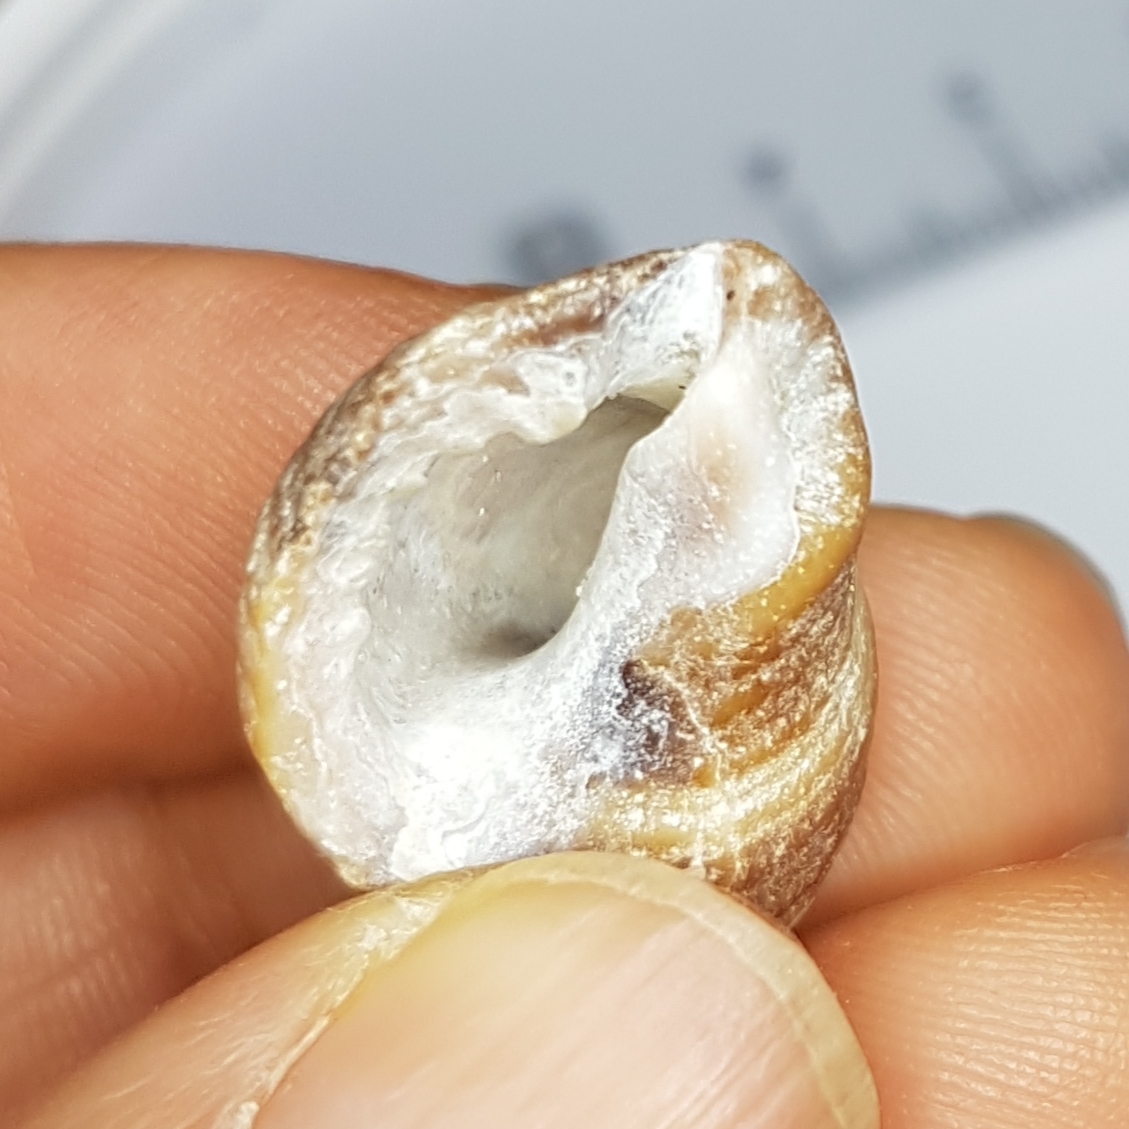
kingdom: Animalia
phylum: Mollusca
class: Gastropoda
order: Neogastropoda
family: Muricidae
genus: Nucella
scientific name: Nucella lapillus
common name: Dog whelk
